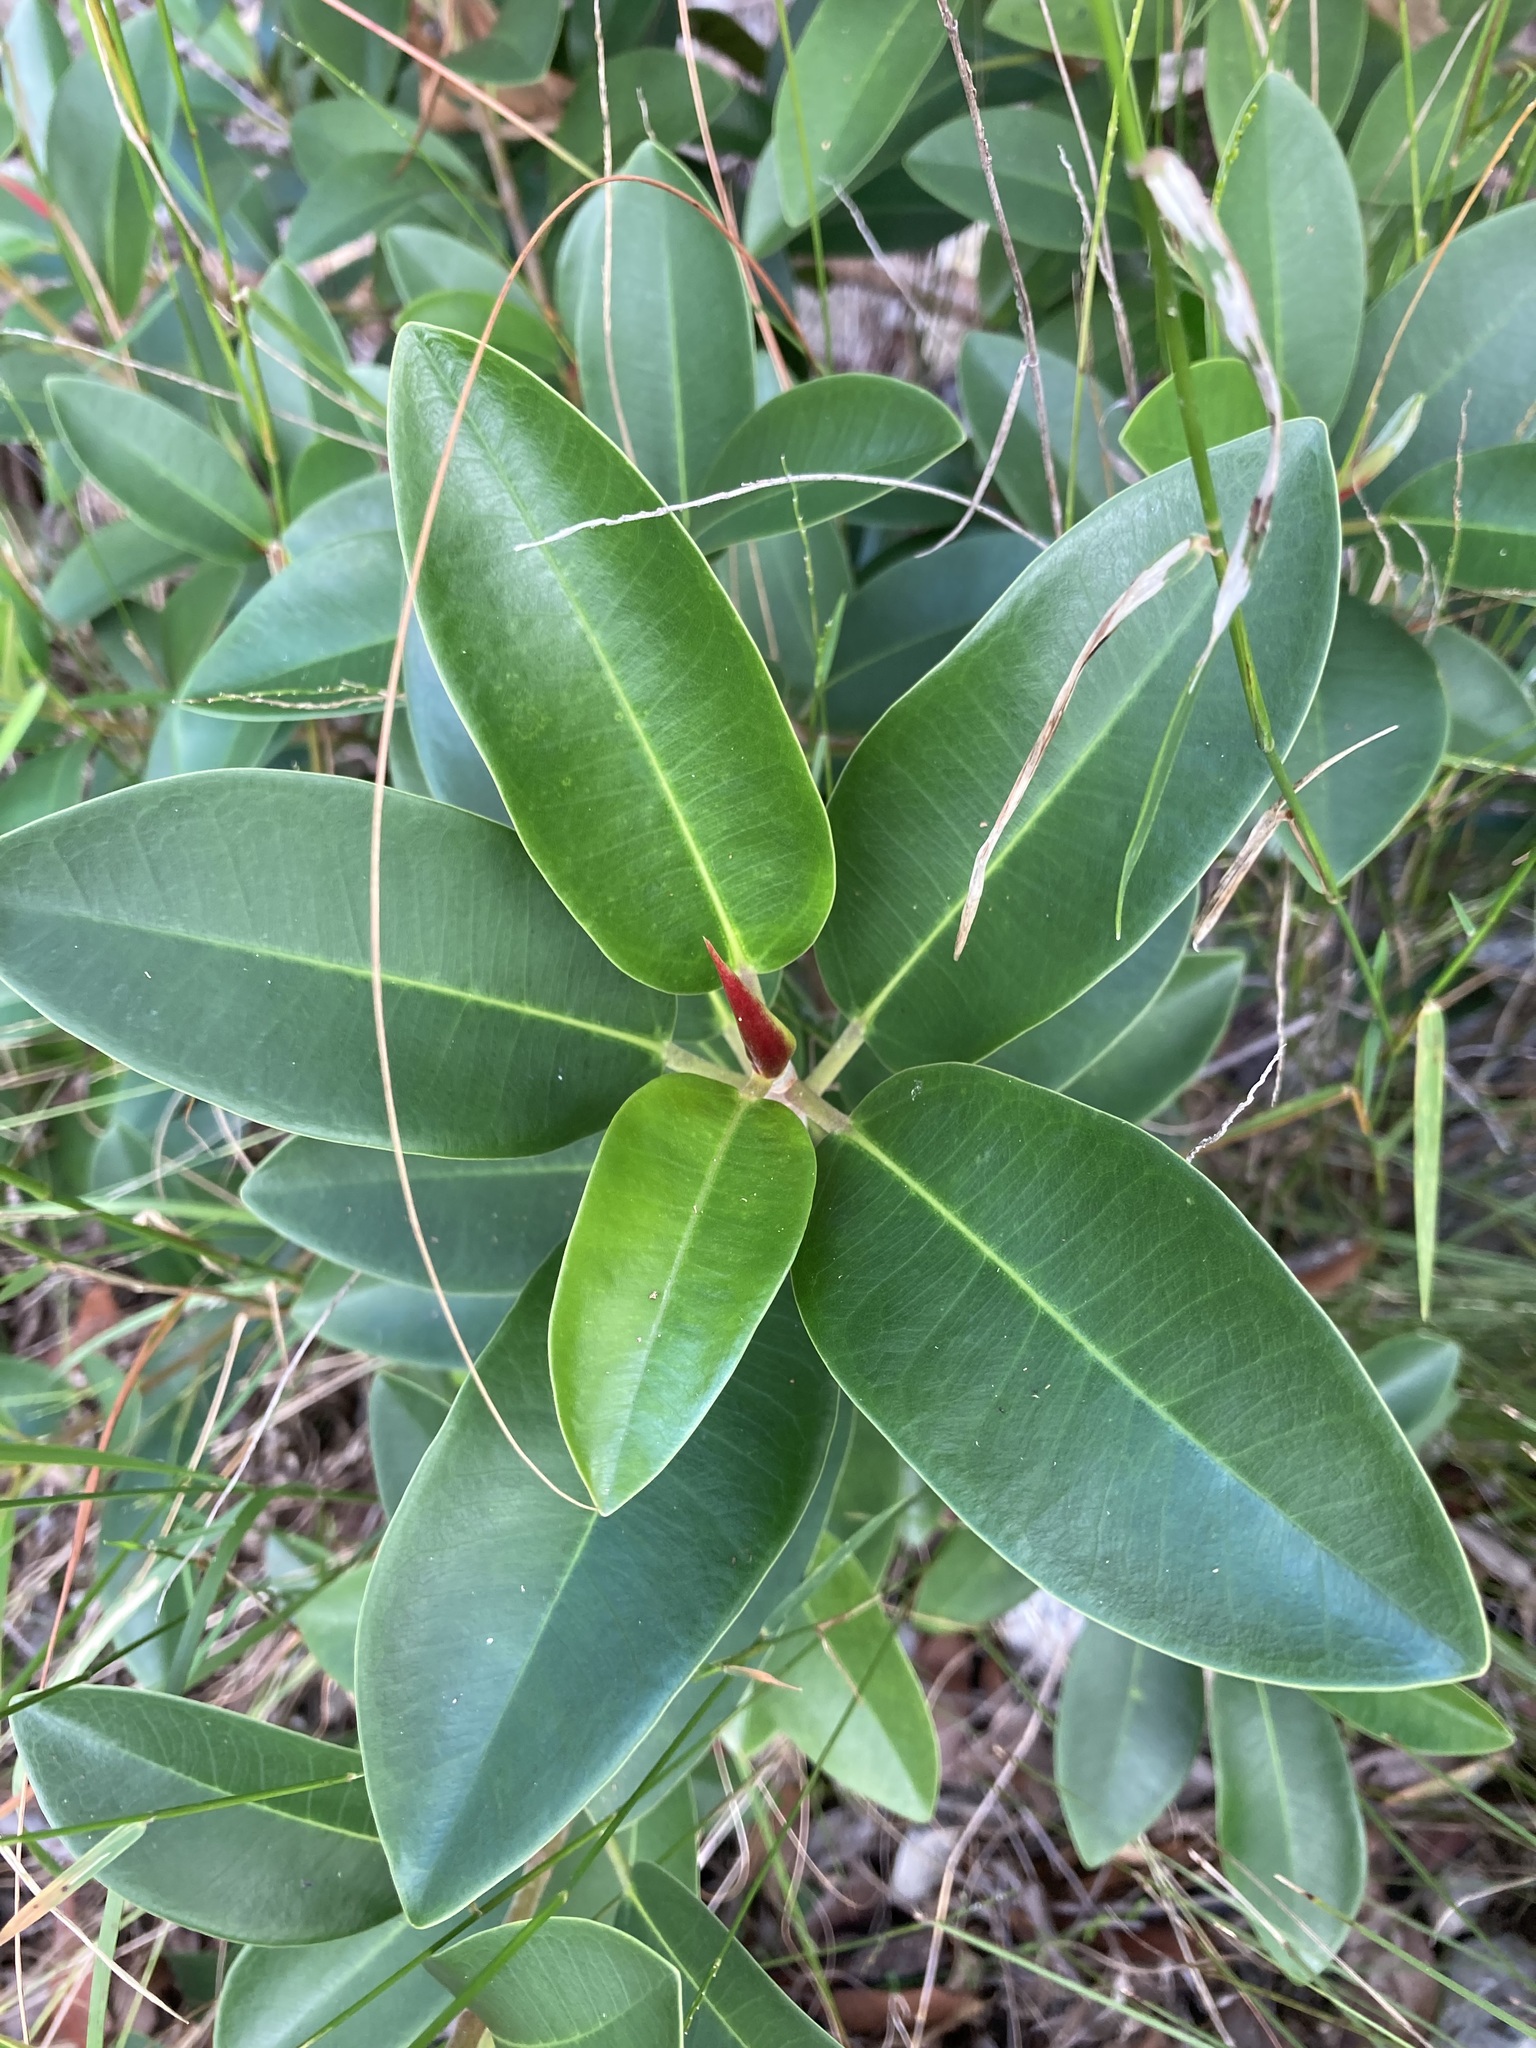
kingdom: Plantae
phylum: Tracheophyta
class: Magnoliopsida
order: Rosales
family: Moraceae
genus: Ficus
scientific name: Ficus rubiginosa
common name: Port jackson fig
